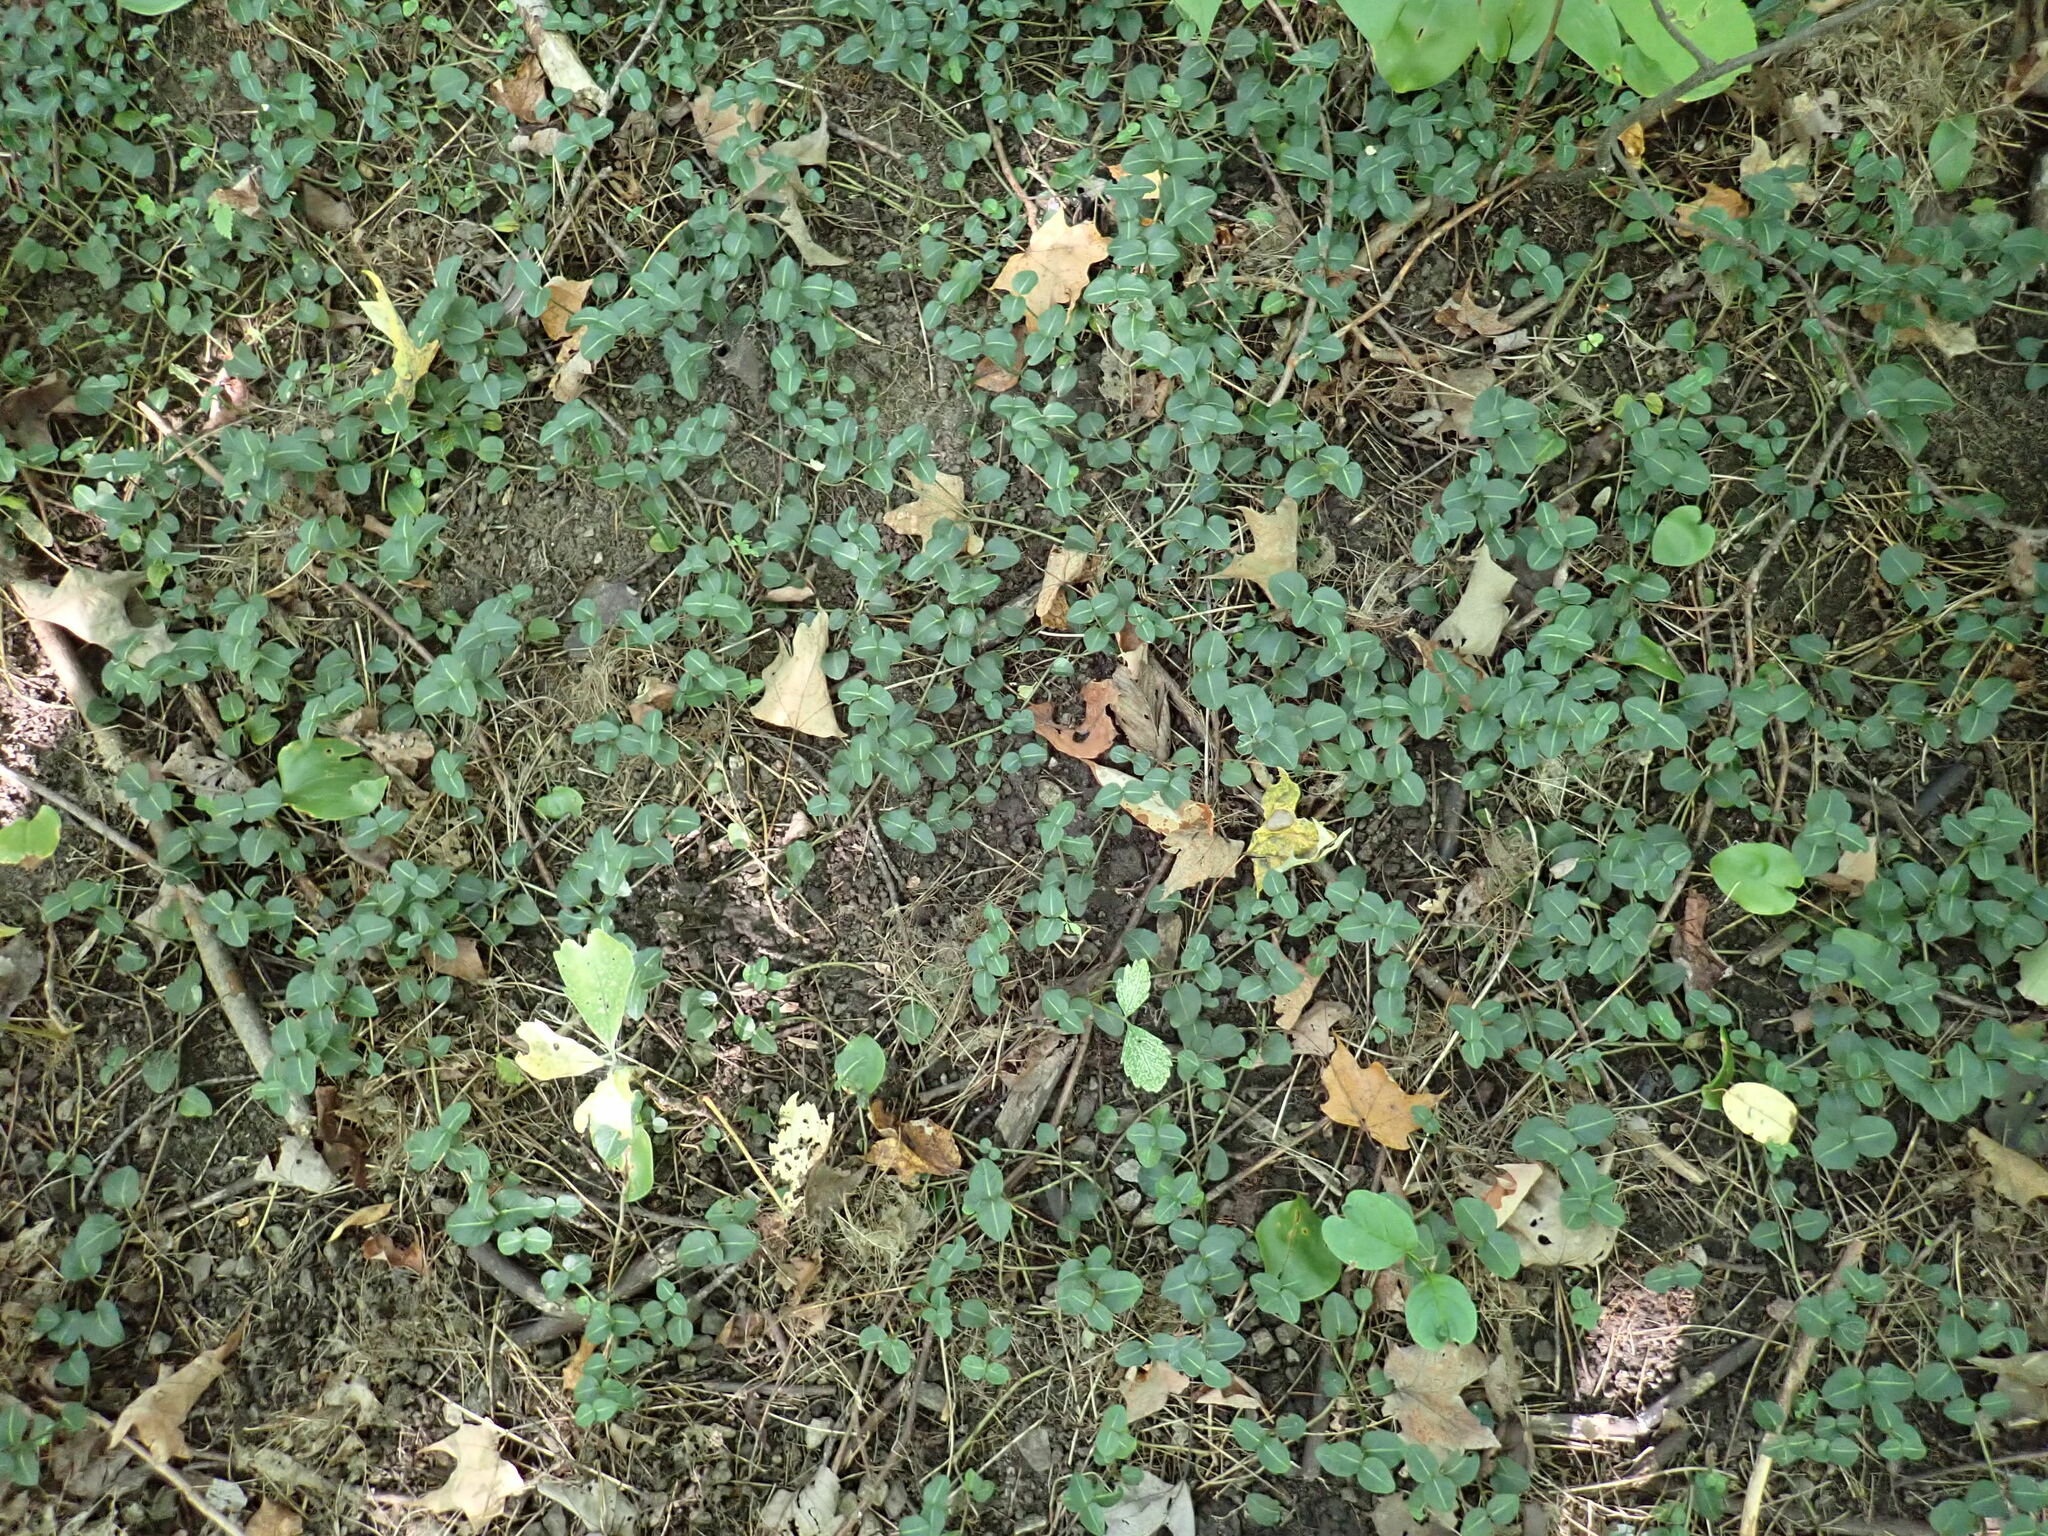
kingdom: Plantae
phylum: Tracheophyta
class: Magnoliopsida
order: Gentianales
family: Rubiaceae
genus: Mitchella
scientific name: Mitchella repens
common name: Partridge-berry
